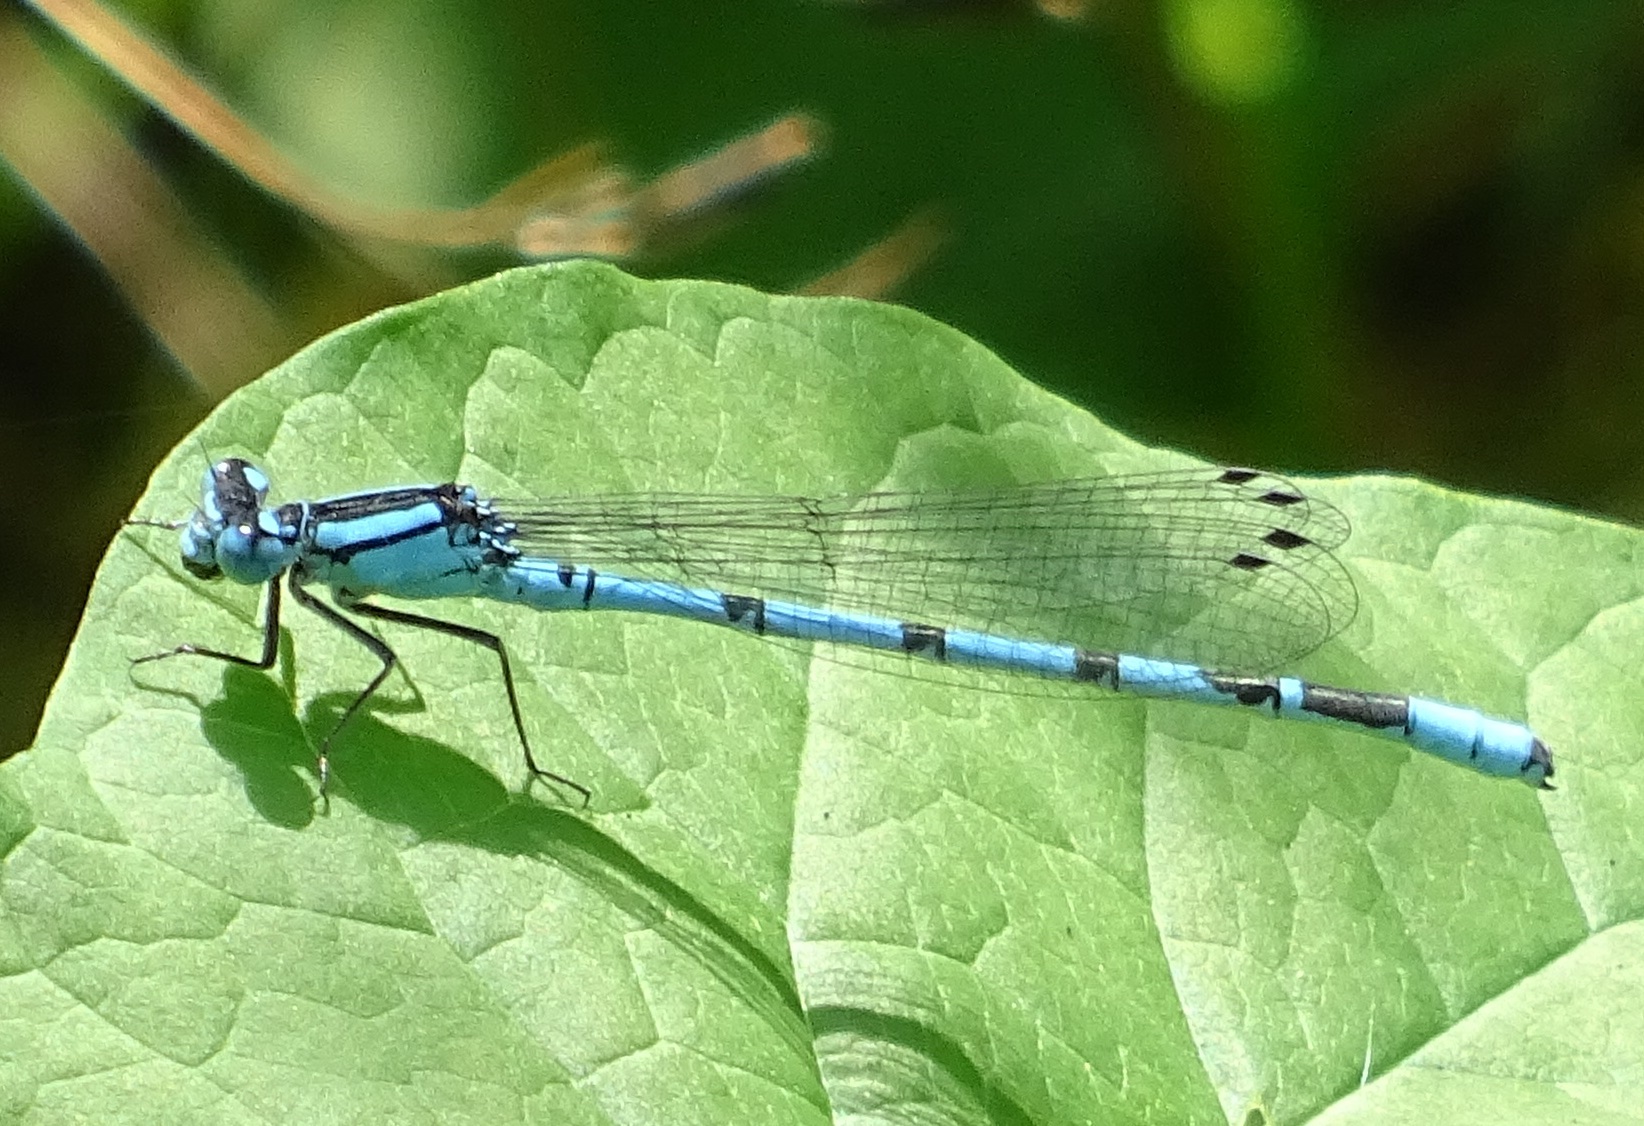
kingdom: Animalia
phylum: Arthropoda
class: Insecta
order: Odonata
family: Coenagrionidae
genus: Enallagma
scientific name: Enallagma cyathigerum
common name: Common blue damselfly
